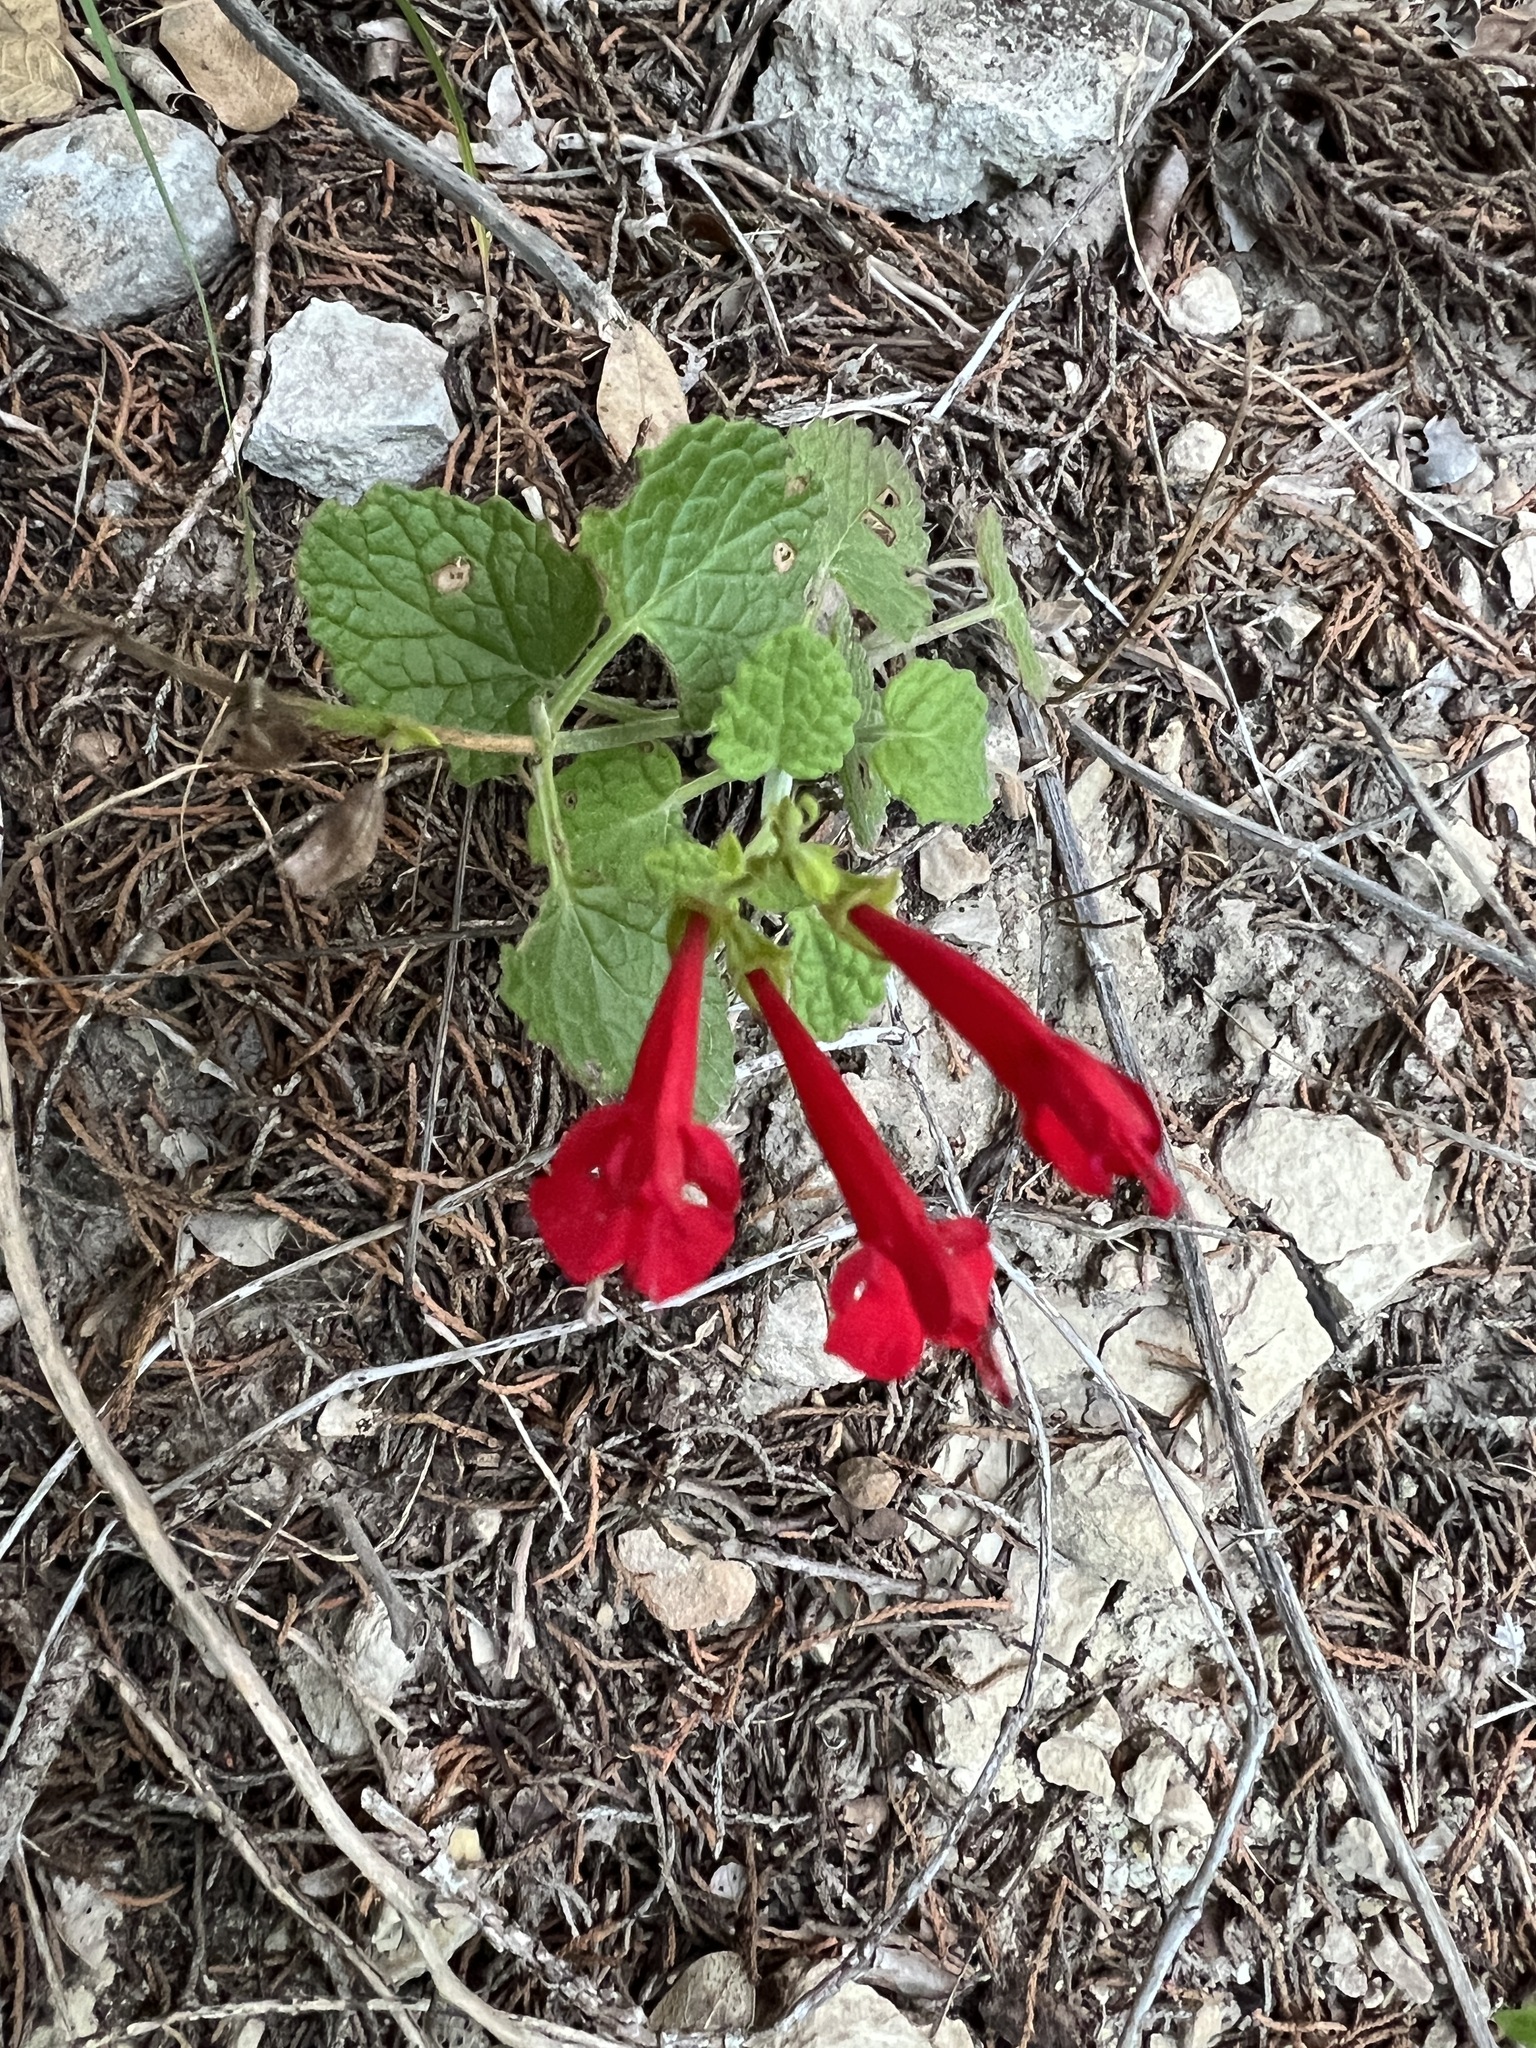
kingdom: Plantae
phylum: Tracheophyta
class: Magnoliopsida
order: Lamiales
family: Lamiaceae
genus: Salvia
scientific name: Salvia roemeriana
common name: Cedar sage
